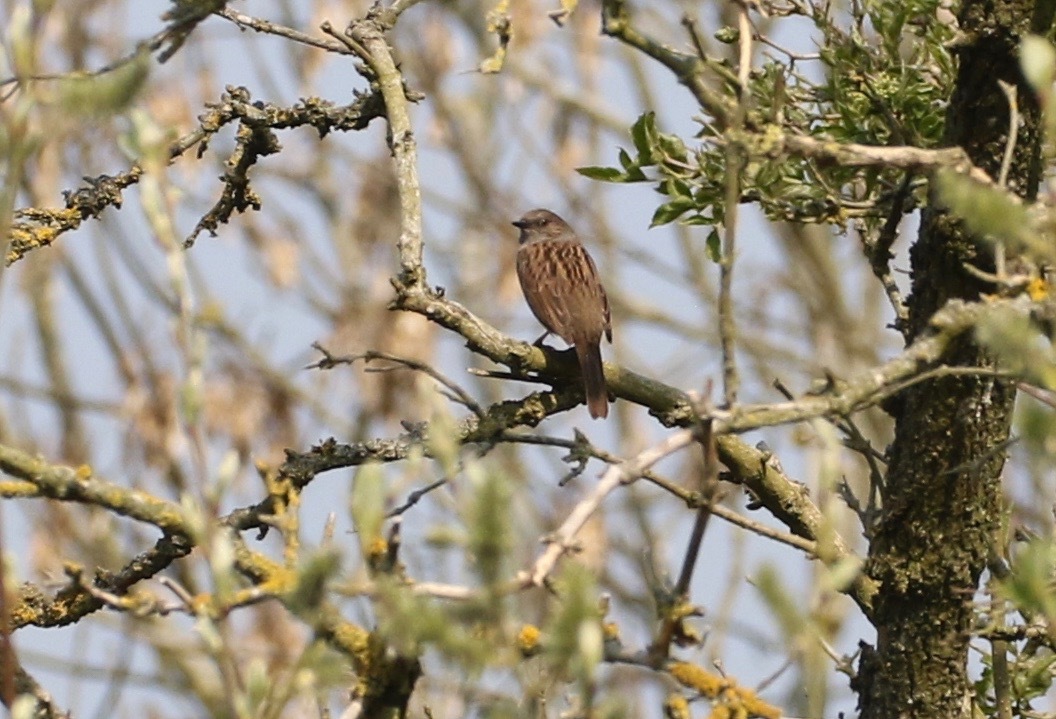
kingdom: Animalia
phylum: Chordata
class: Aves
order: Passeriformes
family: Prunellidae
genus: Prunella
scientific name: Prunella modularis
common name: Dunnock
